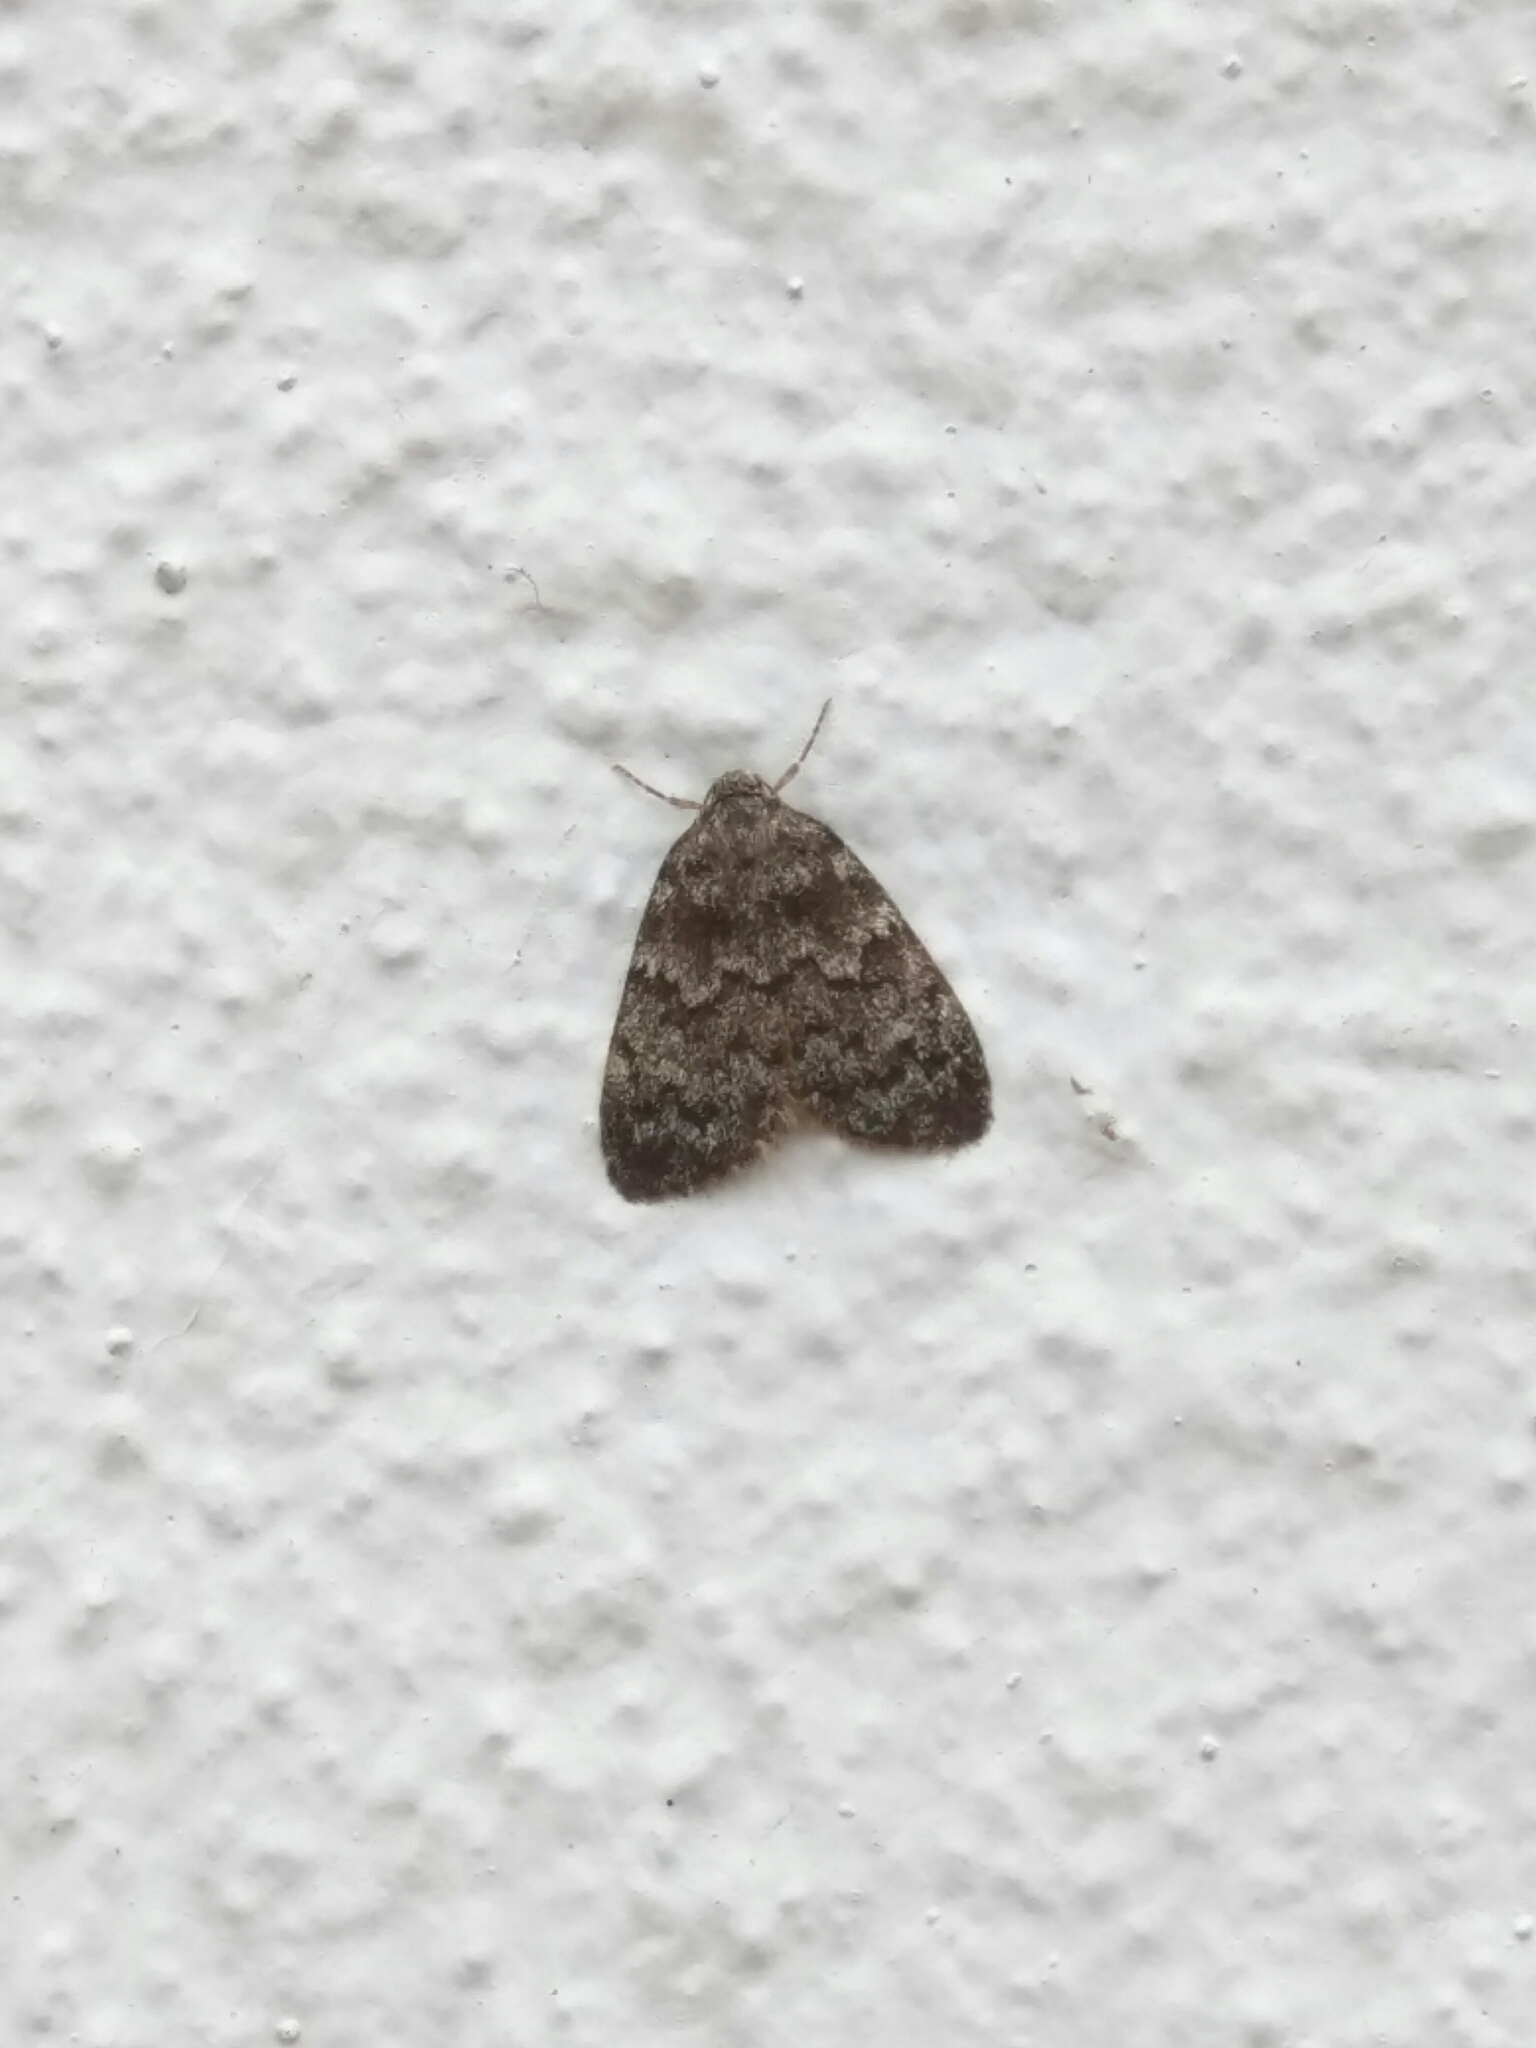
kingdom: Animalia
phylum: Arthropoda
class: Insecta
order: Lepidoptera
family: Erebidae
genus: Halone
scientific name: Halone consolatrix
